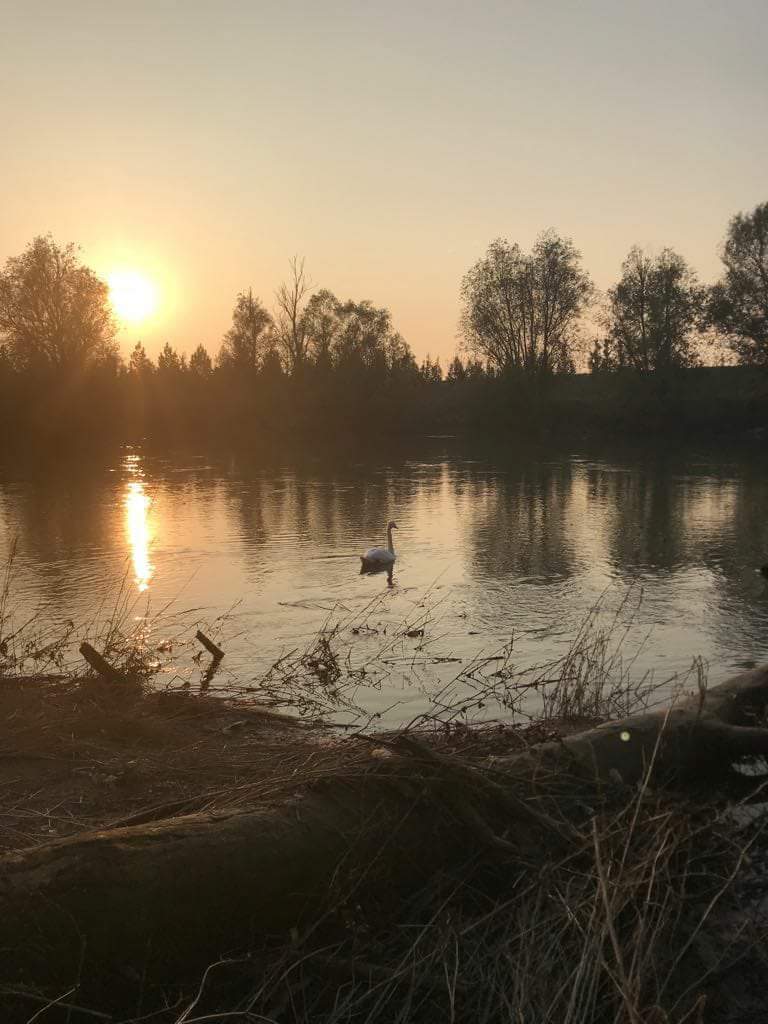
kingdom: Animalia
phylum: Chordata
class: Aves
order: Anseriformes
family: Anatidae
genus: Cygnus
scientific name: Cygnus olor
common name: Mute swan
